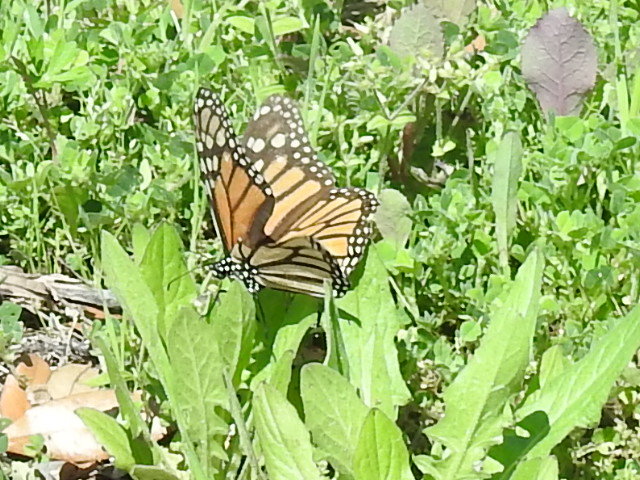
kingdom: Animalia
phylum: Arthropoda
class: Insecta
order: Lepidoptera
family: Nymphalidae
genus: Danaus
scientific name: Danaus plexippus
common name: Monarch
